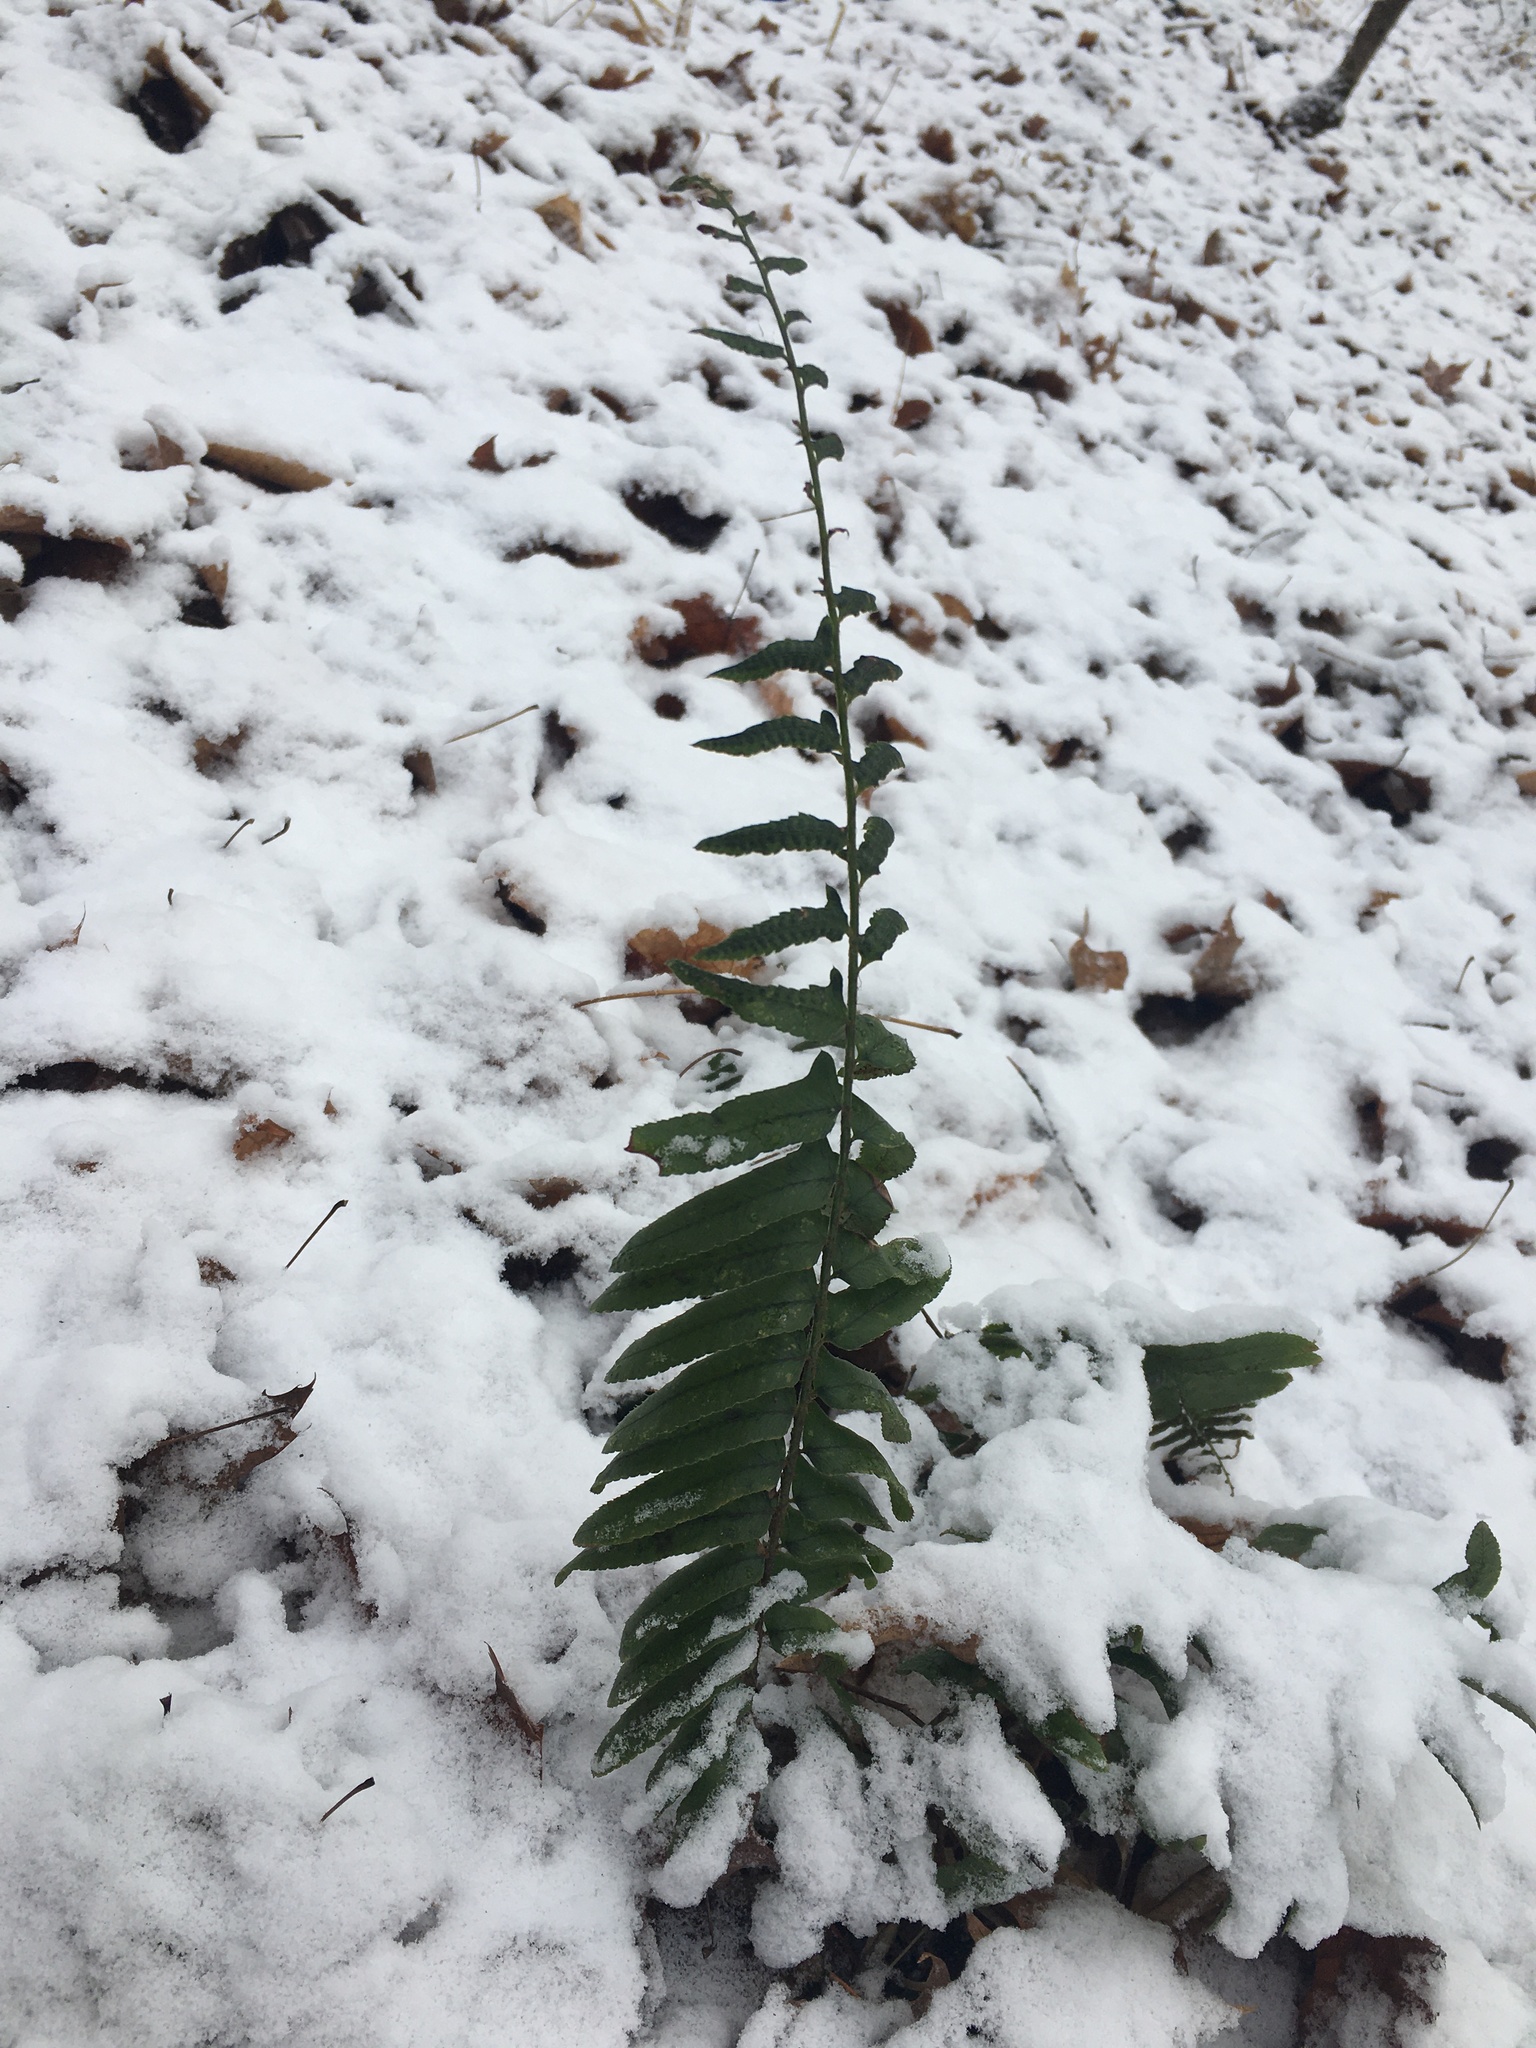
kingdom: Plantae
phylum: Tracheophyta
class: Polypodiopsida
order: Polypodiales
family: Dryopteridaceae
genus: Polystichum
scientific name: Polystichum acrostichoides
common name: Christmas fern
